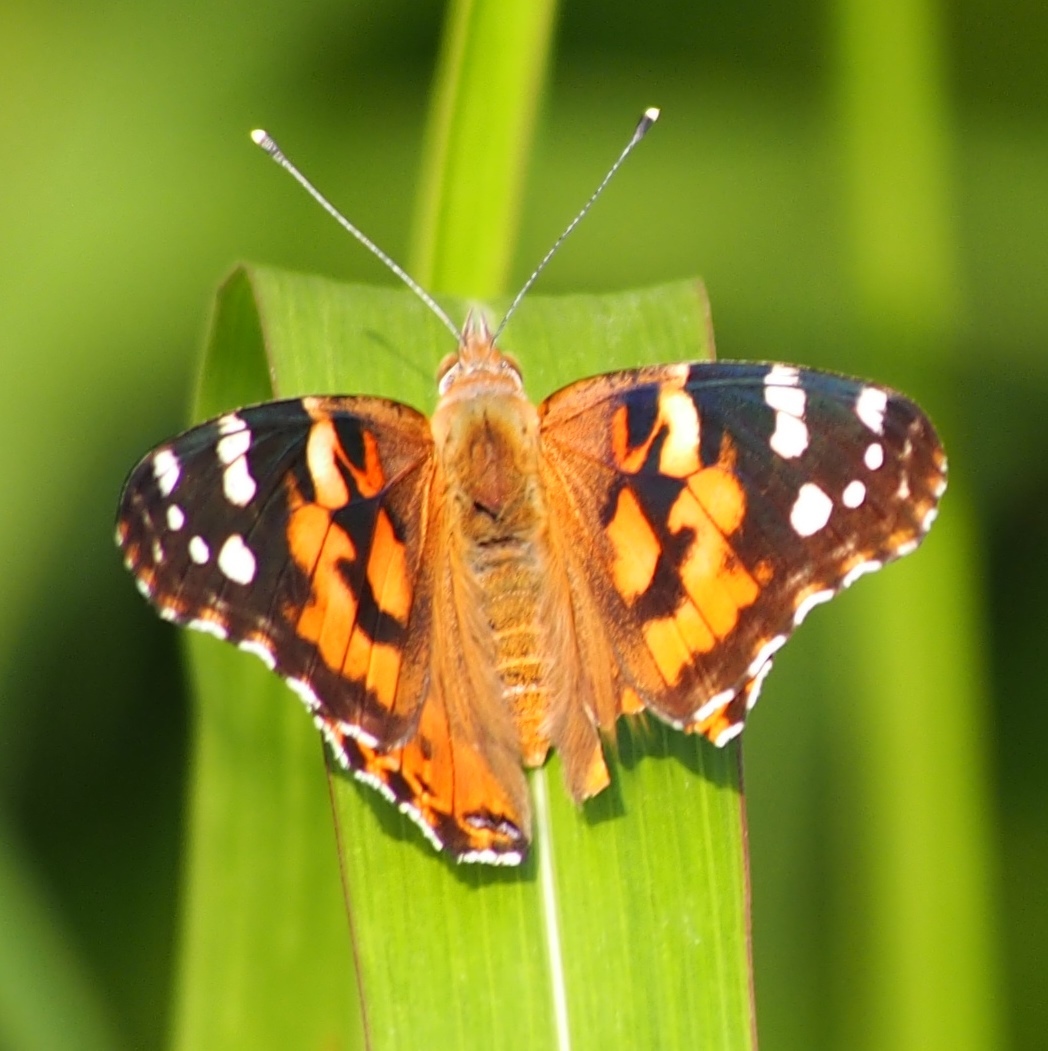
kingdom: Animalia
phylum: Arthropoda
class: Insecta
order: Lepidoptera
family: Nymphalidae
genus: Vanessa
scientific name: Vanessa cardui
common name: Painted lady
